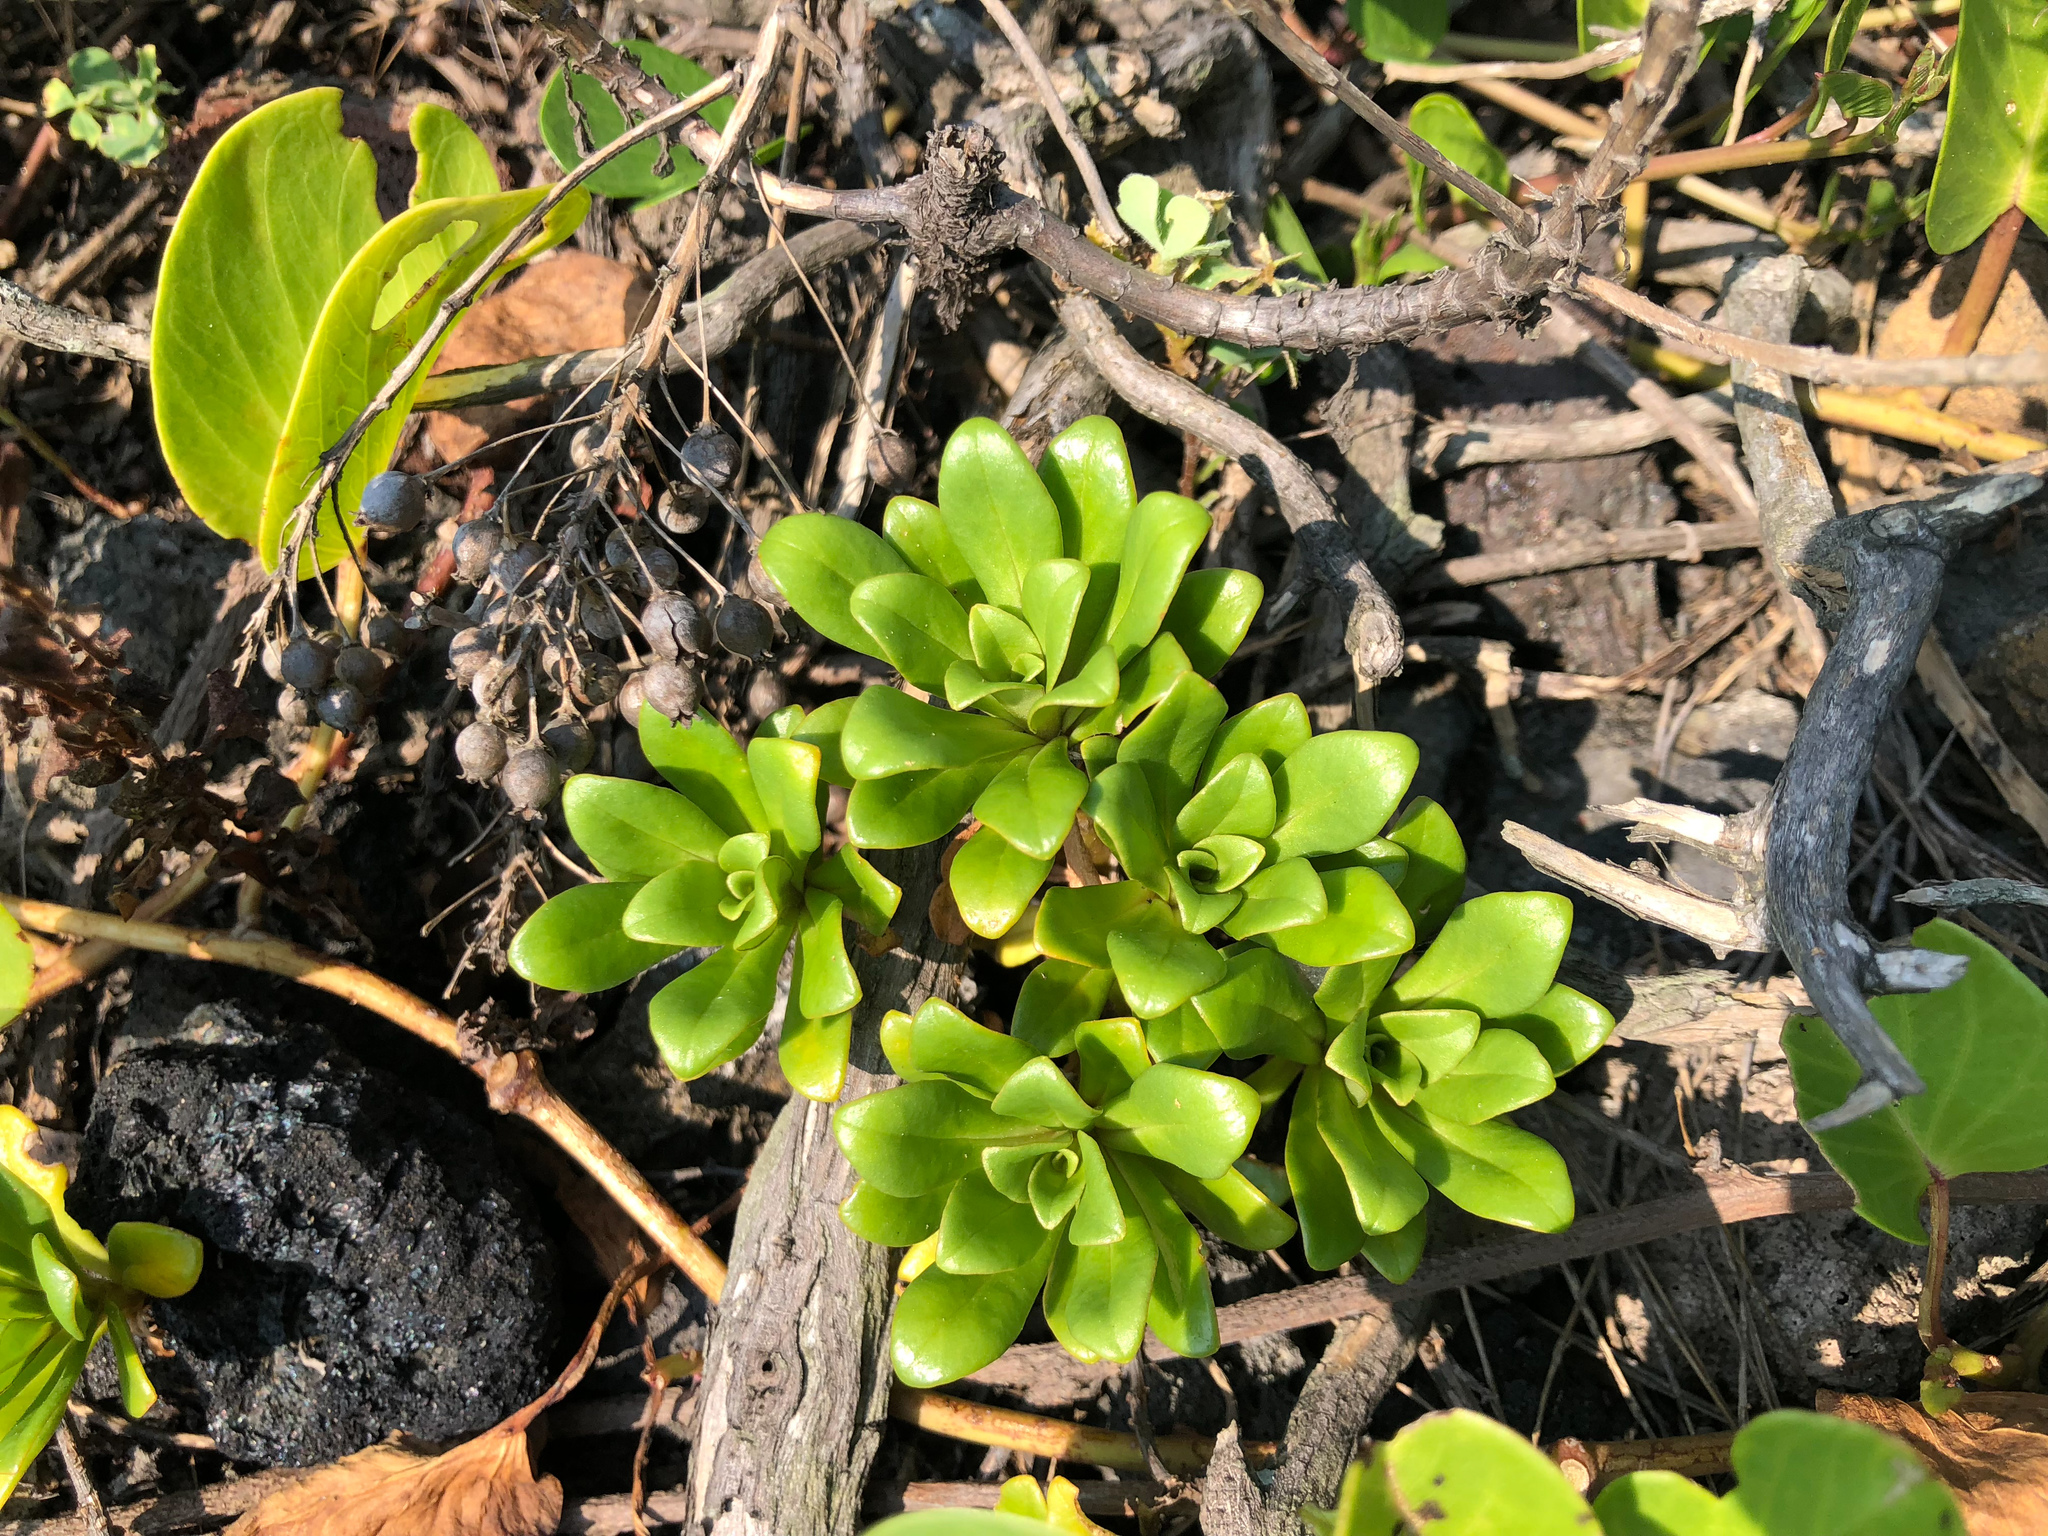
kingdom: Plantae
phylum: Tracheophyta
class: Magnoliopsida
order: Ericales
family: Primulaceae
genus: Lysimachia
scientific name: Lysimachia mauritiana
